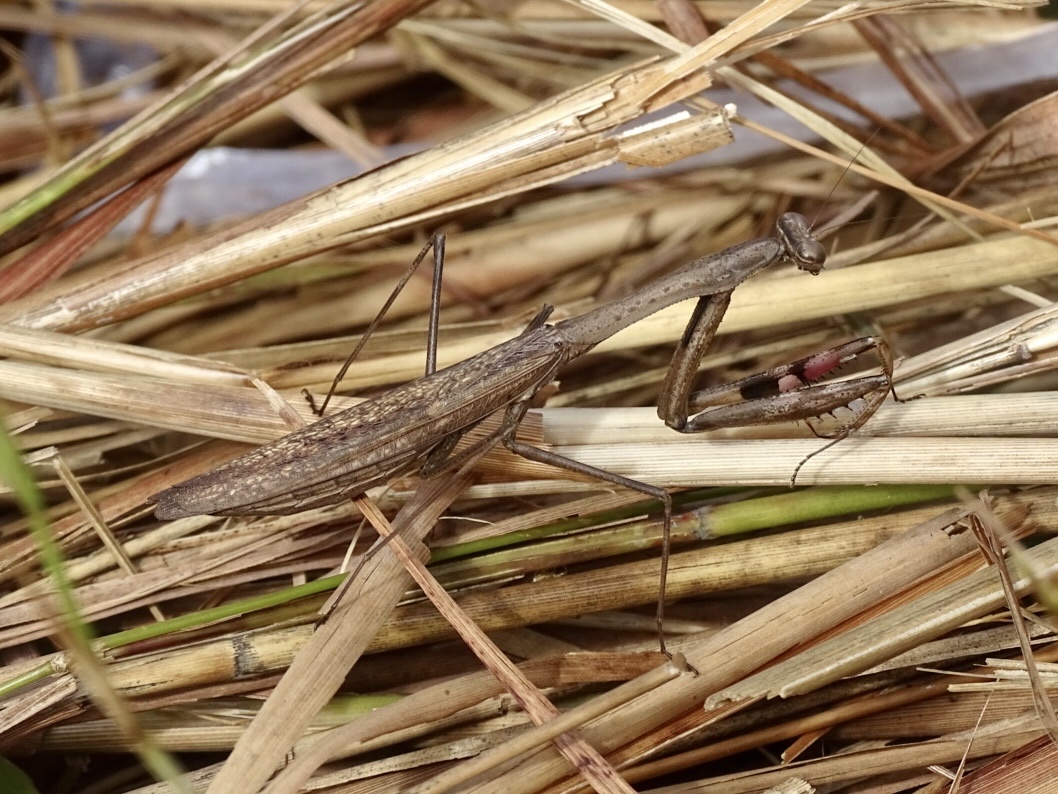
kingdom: Animalia
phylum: Arthropoda
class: Insecta
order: Mantodea
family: Mantidae
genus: Statilia
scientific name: Statilia maculata
